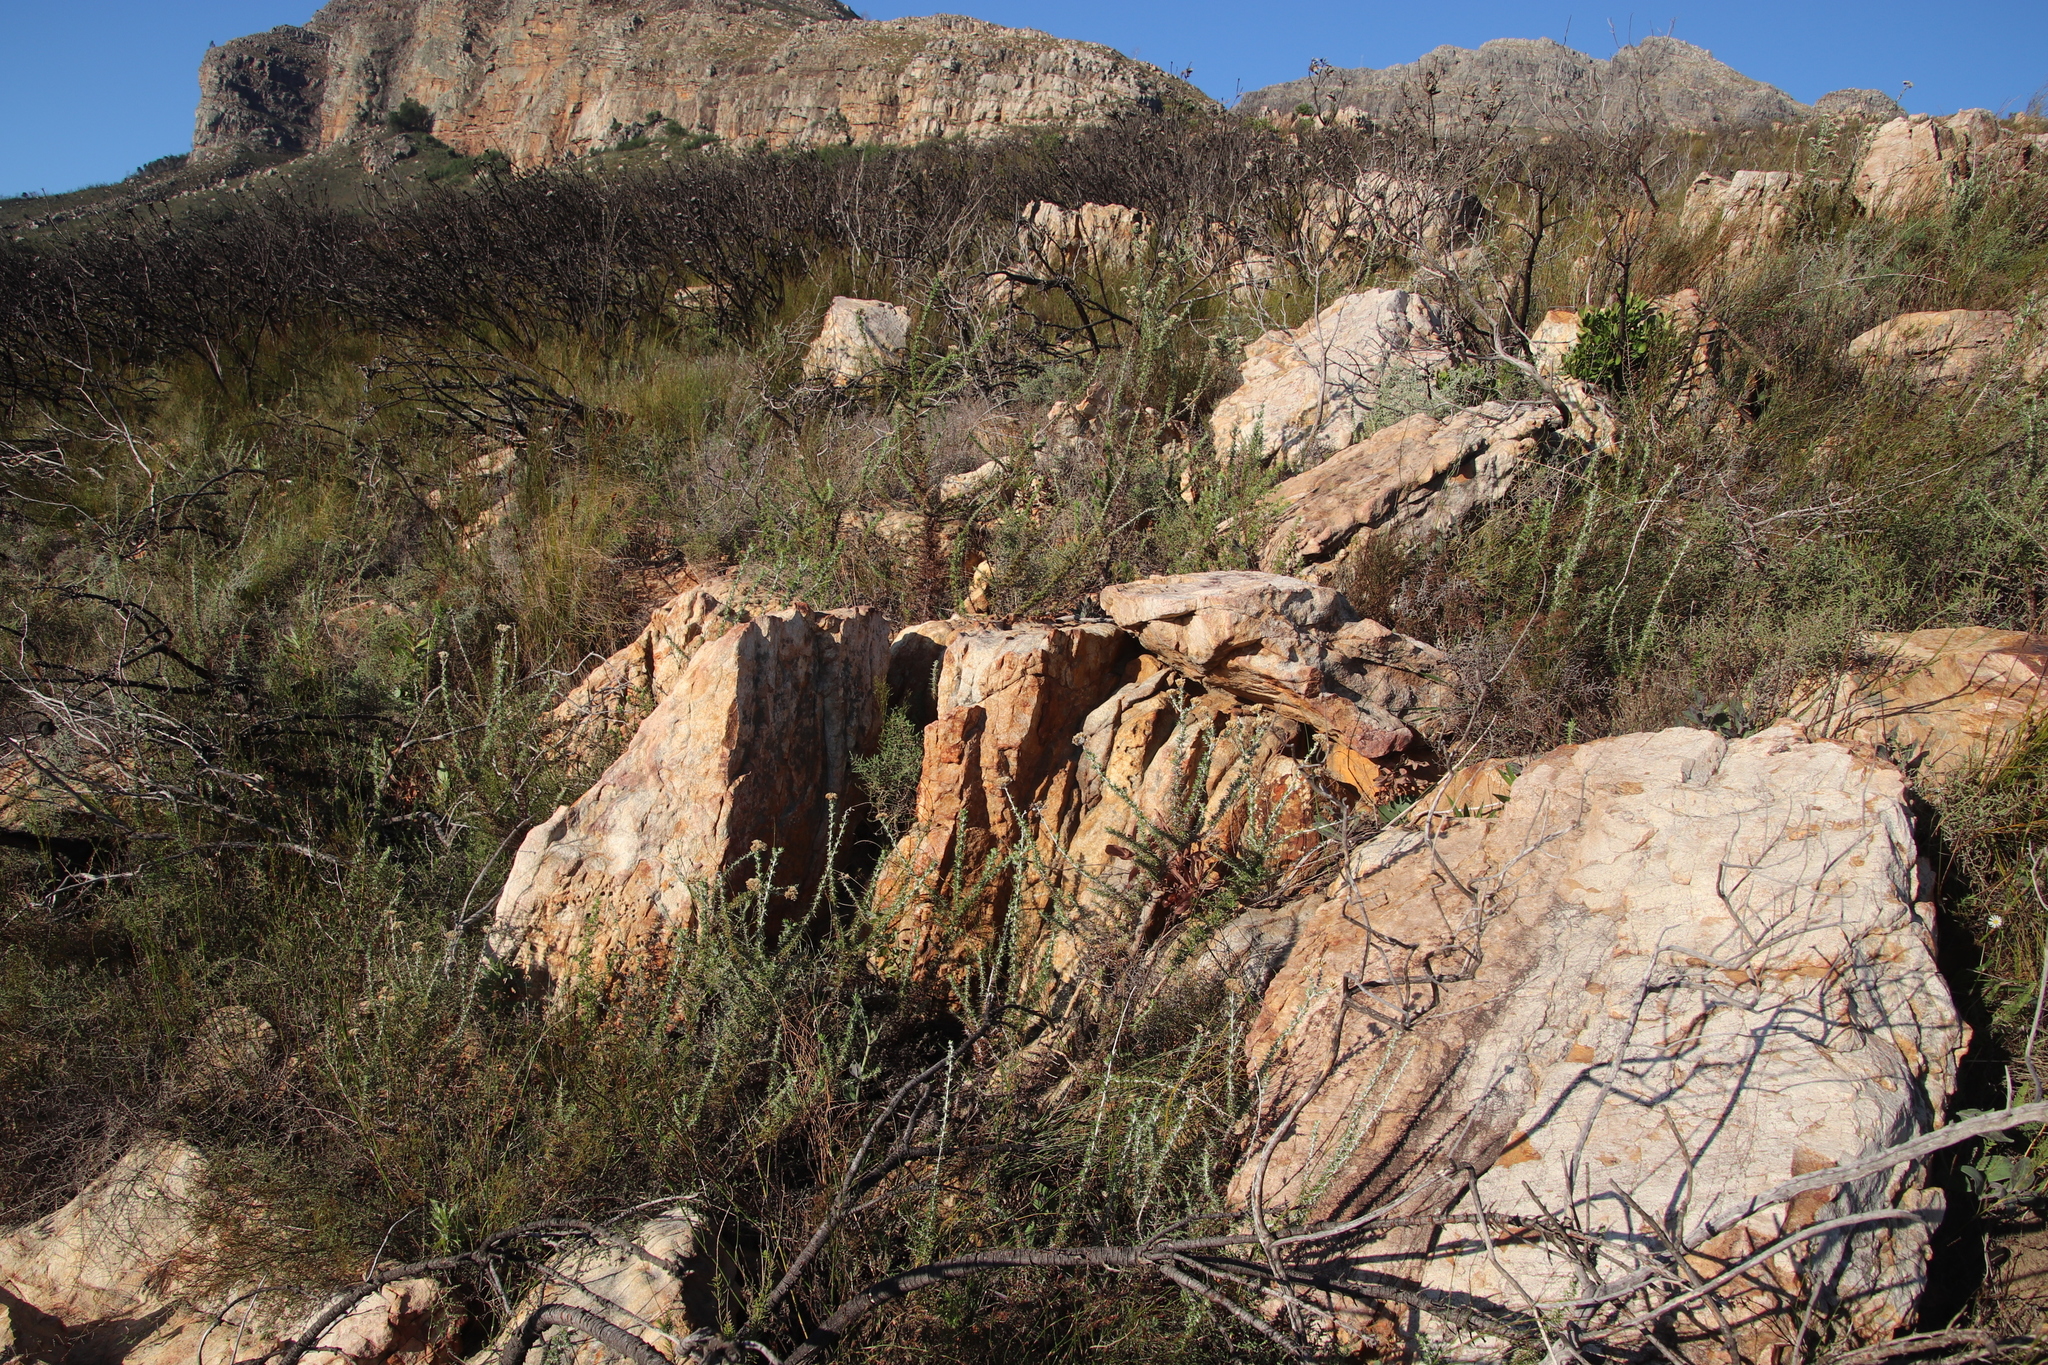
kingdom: Plantae
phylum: Tracheophyta
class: Magnoliopsida
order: Asterales
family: Asteraceae
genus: Metalasia
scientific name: Metalasia densa
